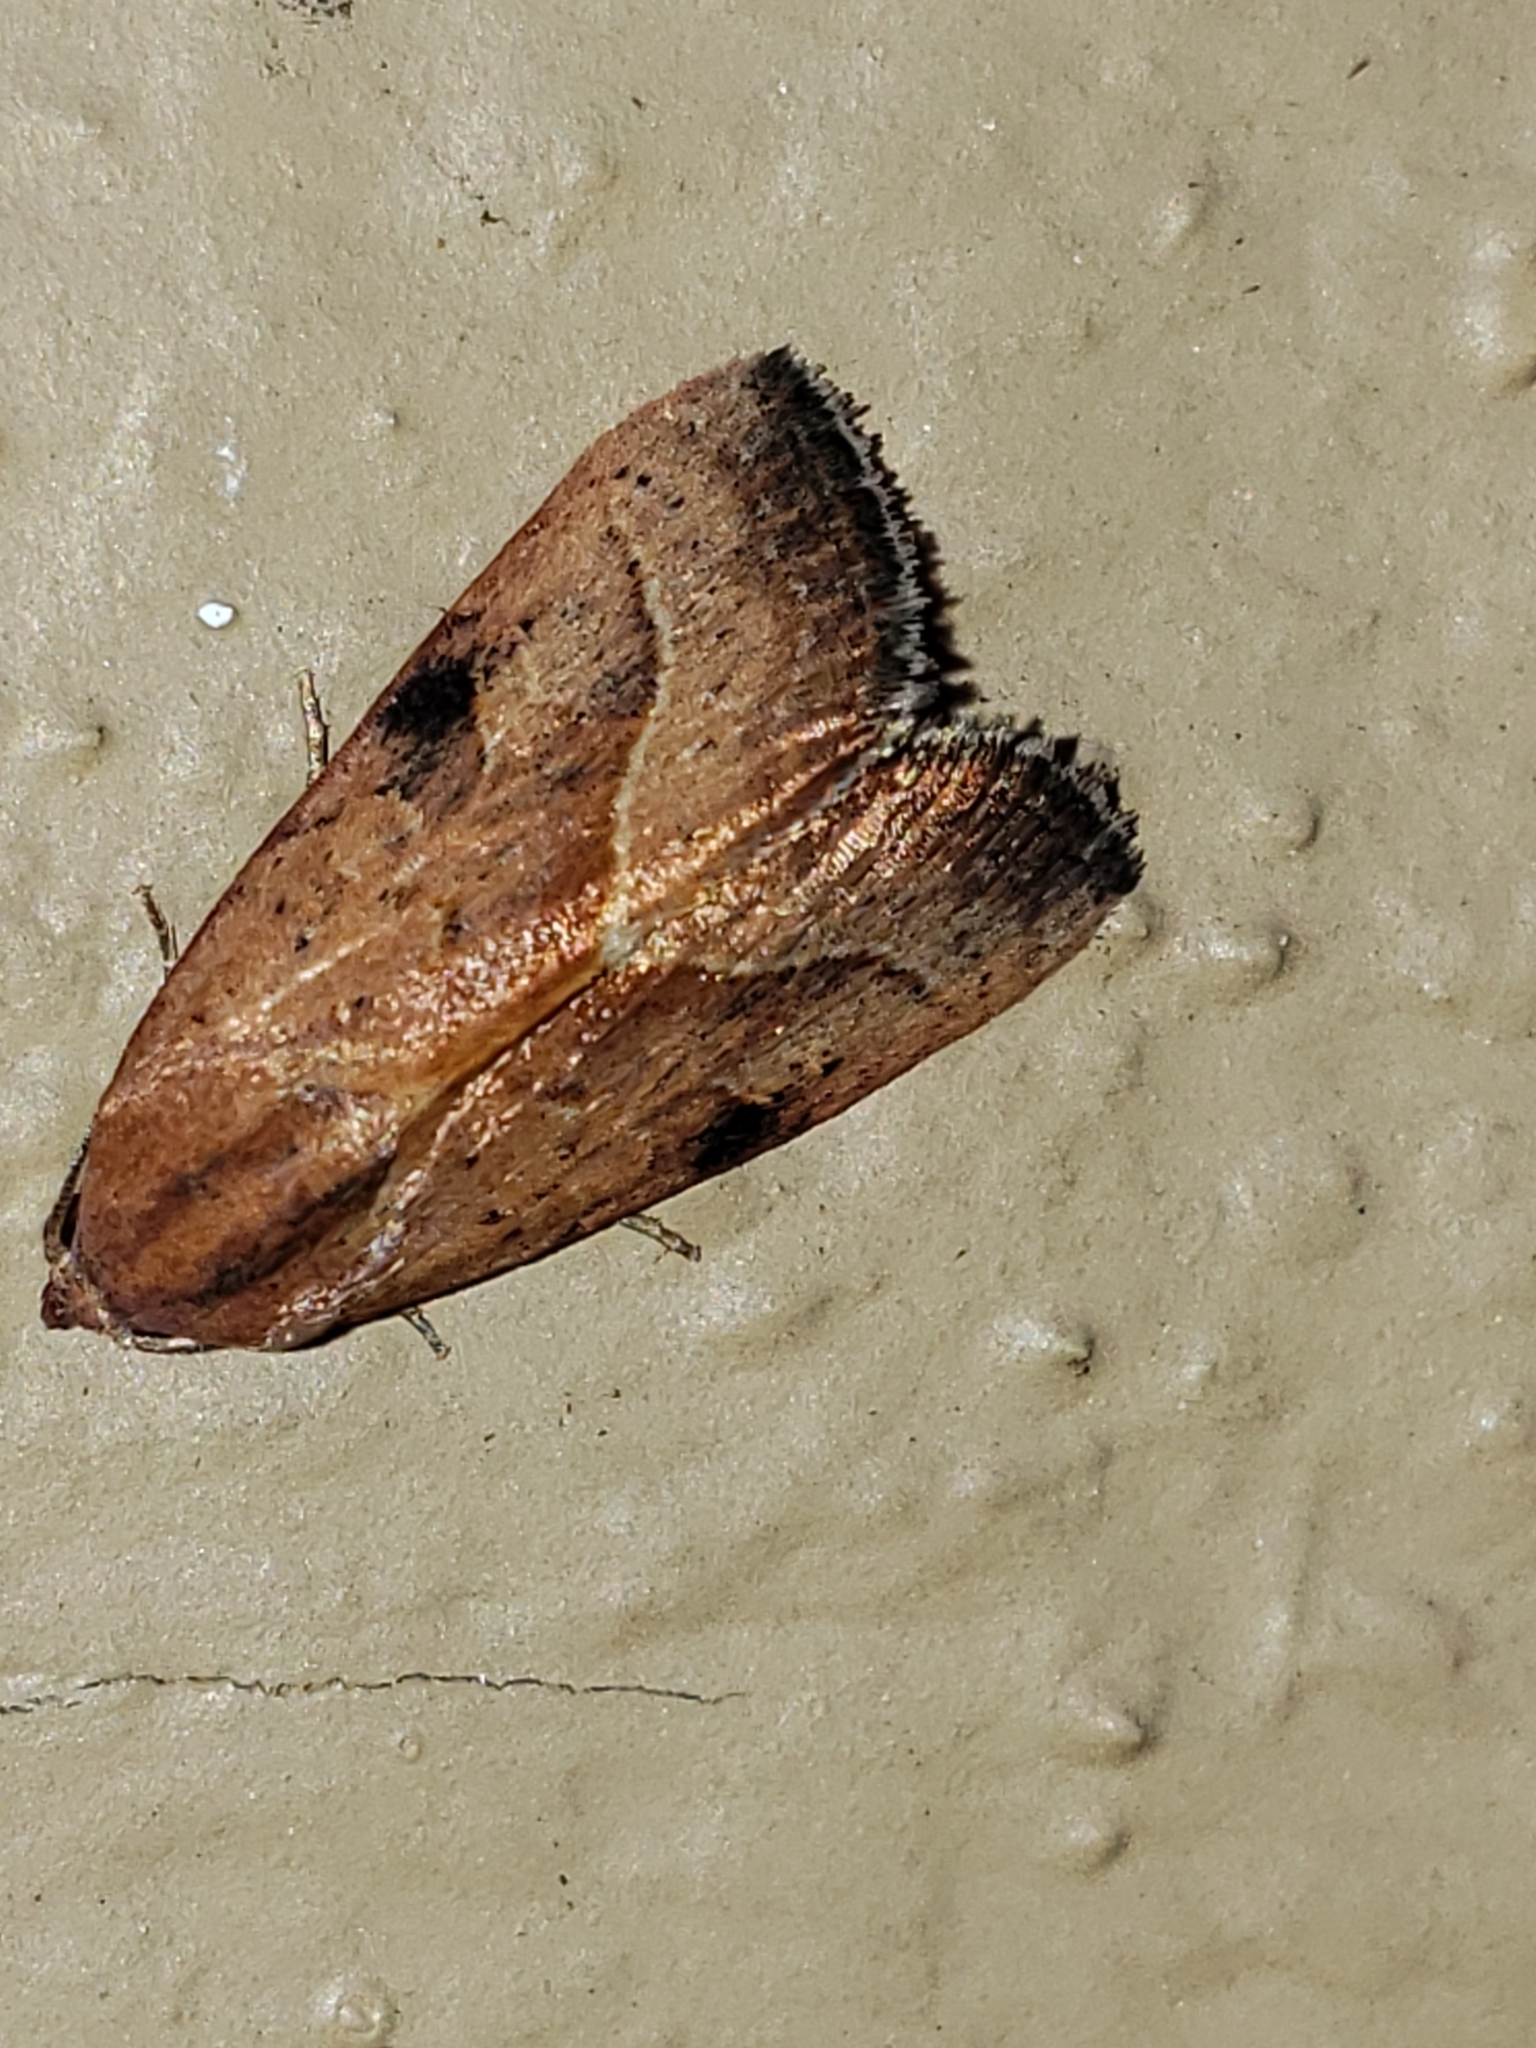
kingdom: Animalia
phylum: Arthropoda
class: Insecta
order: Lepidoptera
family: Noctuidae
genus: Galgula
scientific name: Galgula partita
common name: Wedgeling
